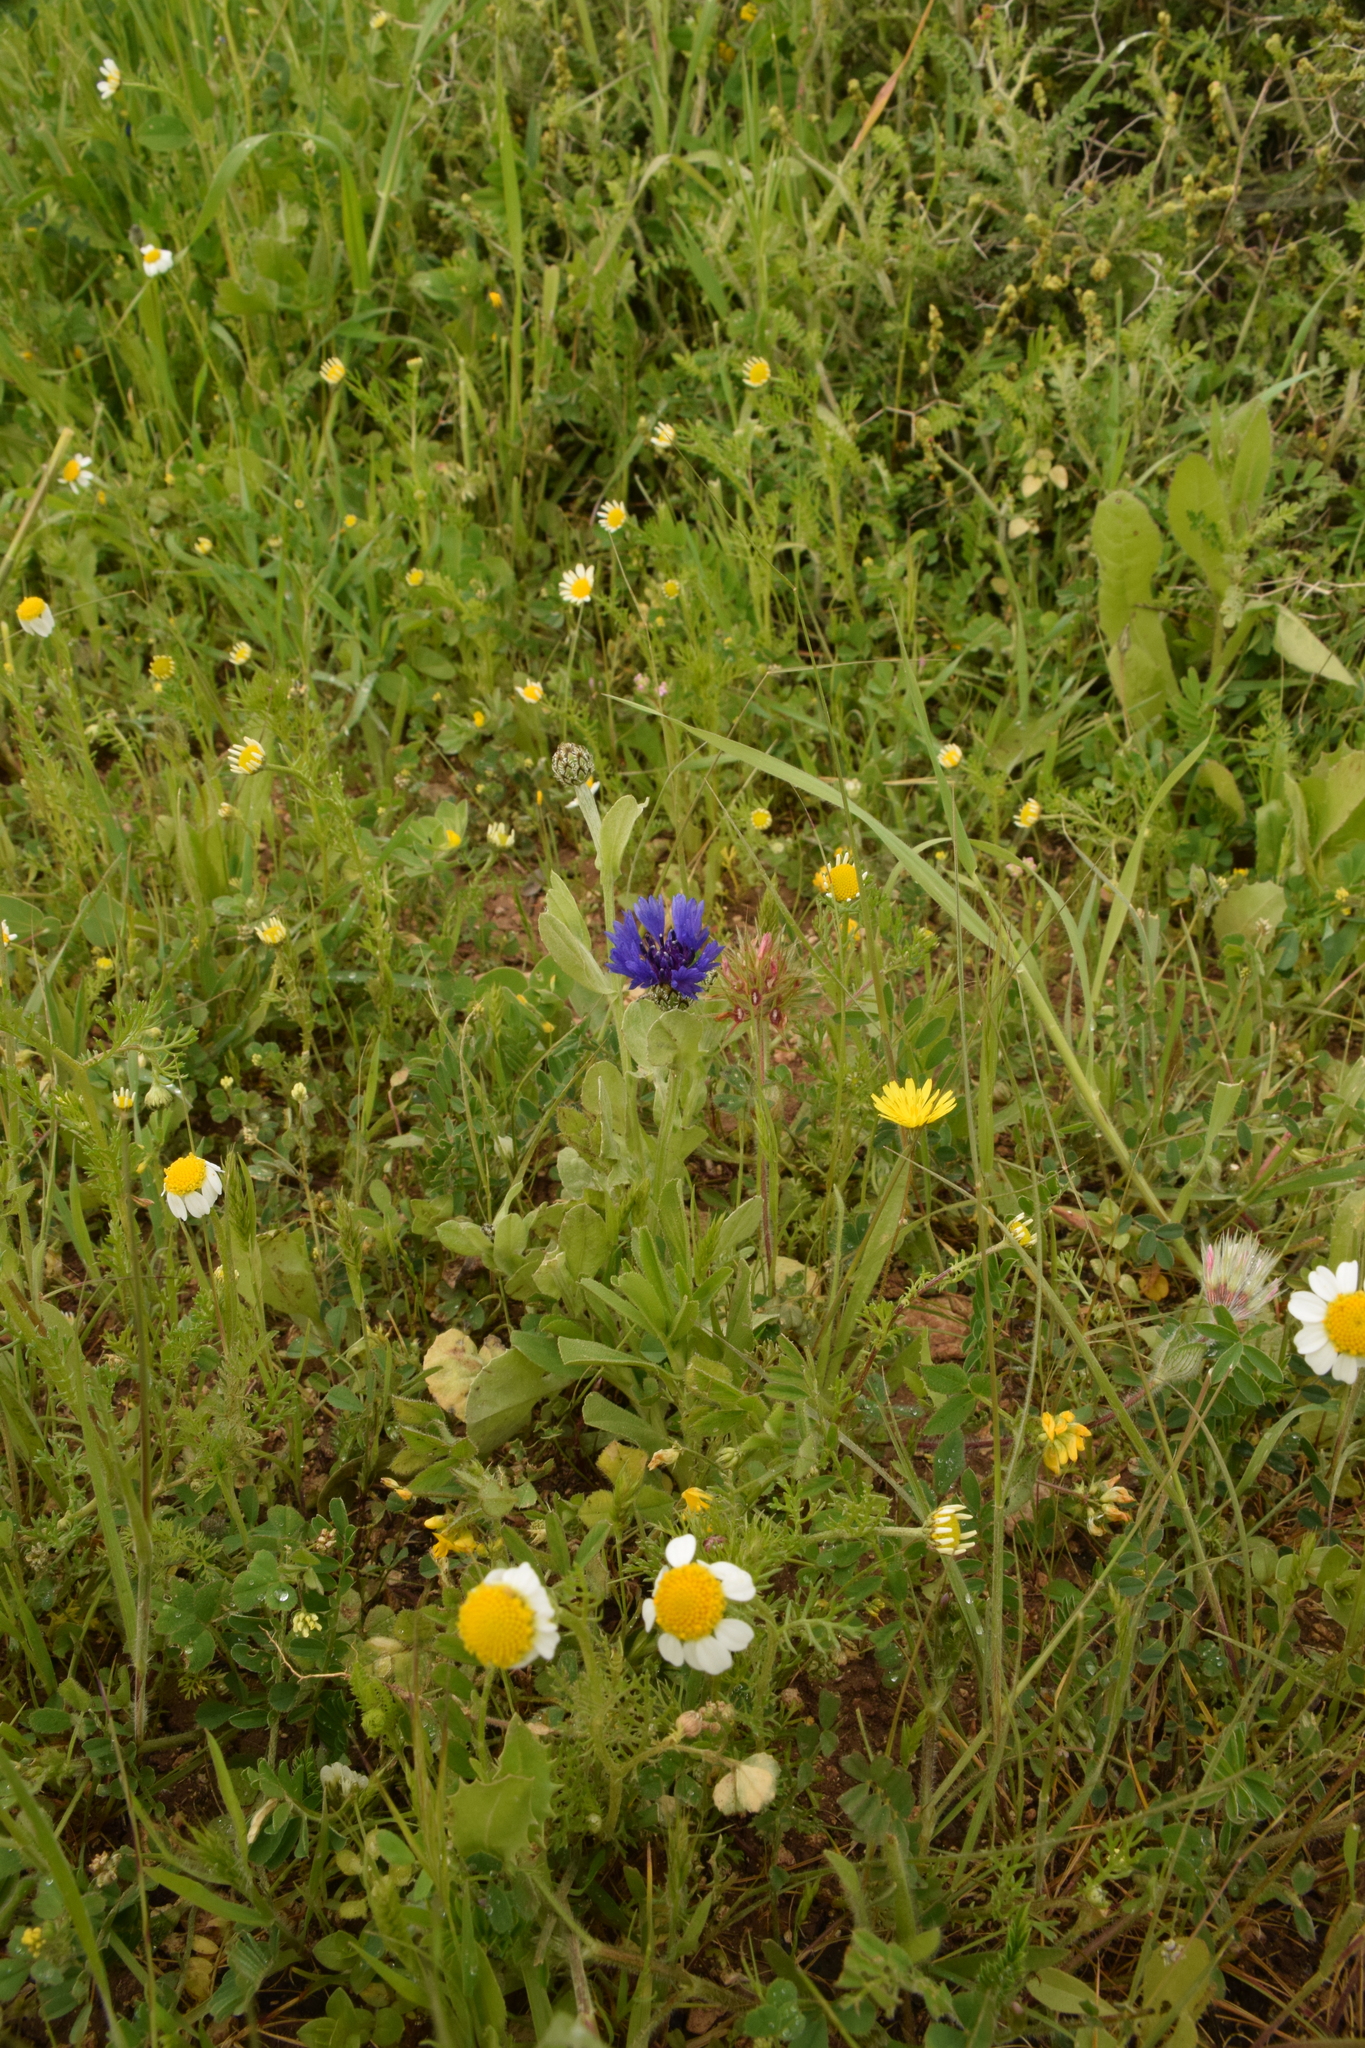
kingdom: Plantae
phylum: Tracheophyta
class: Magnoliopsida
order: Asterales
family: Asteraceae
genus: Centaurea
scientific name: Centaurea cyanoides
